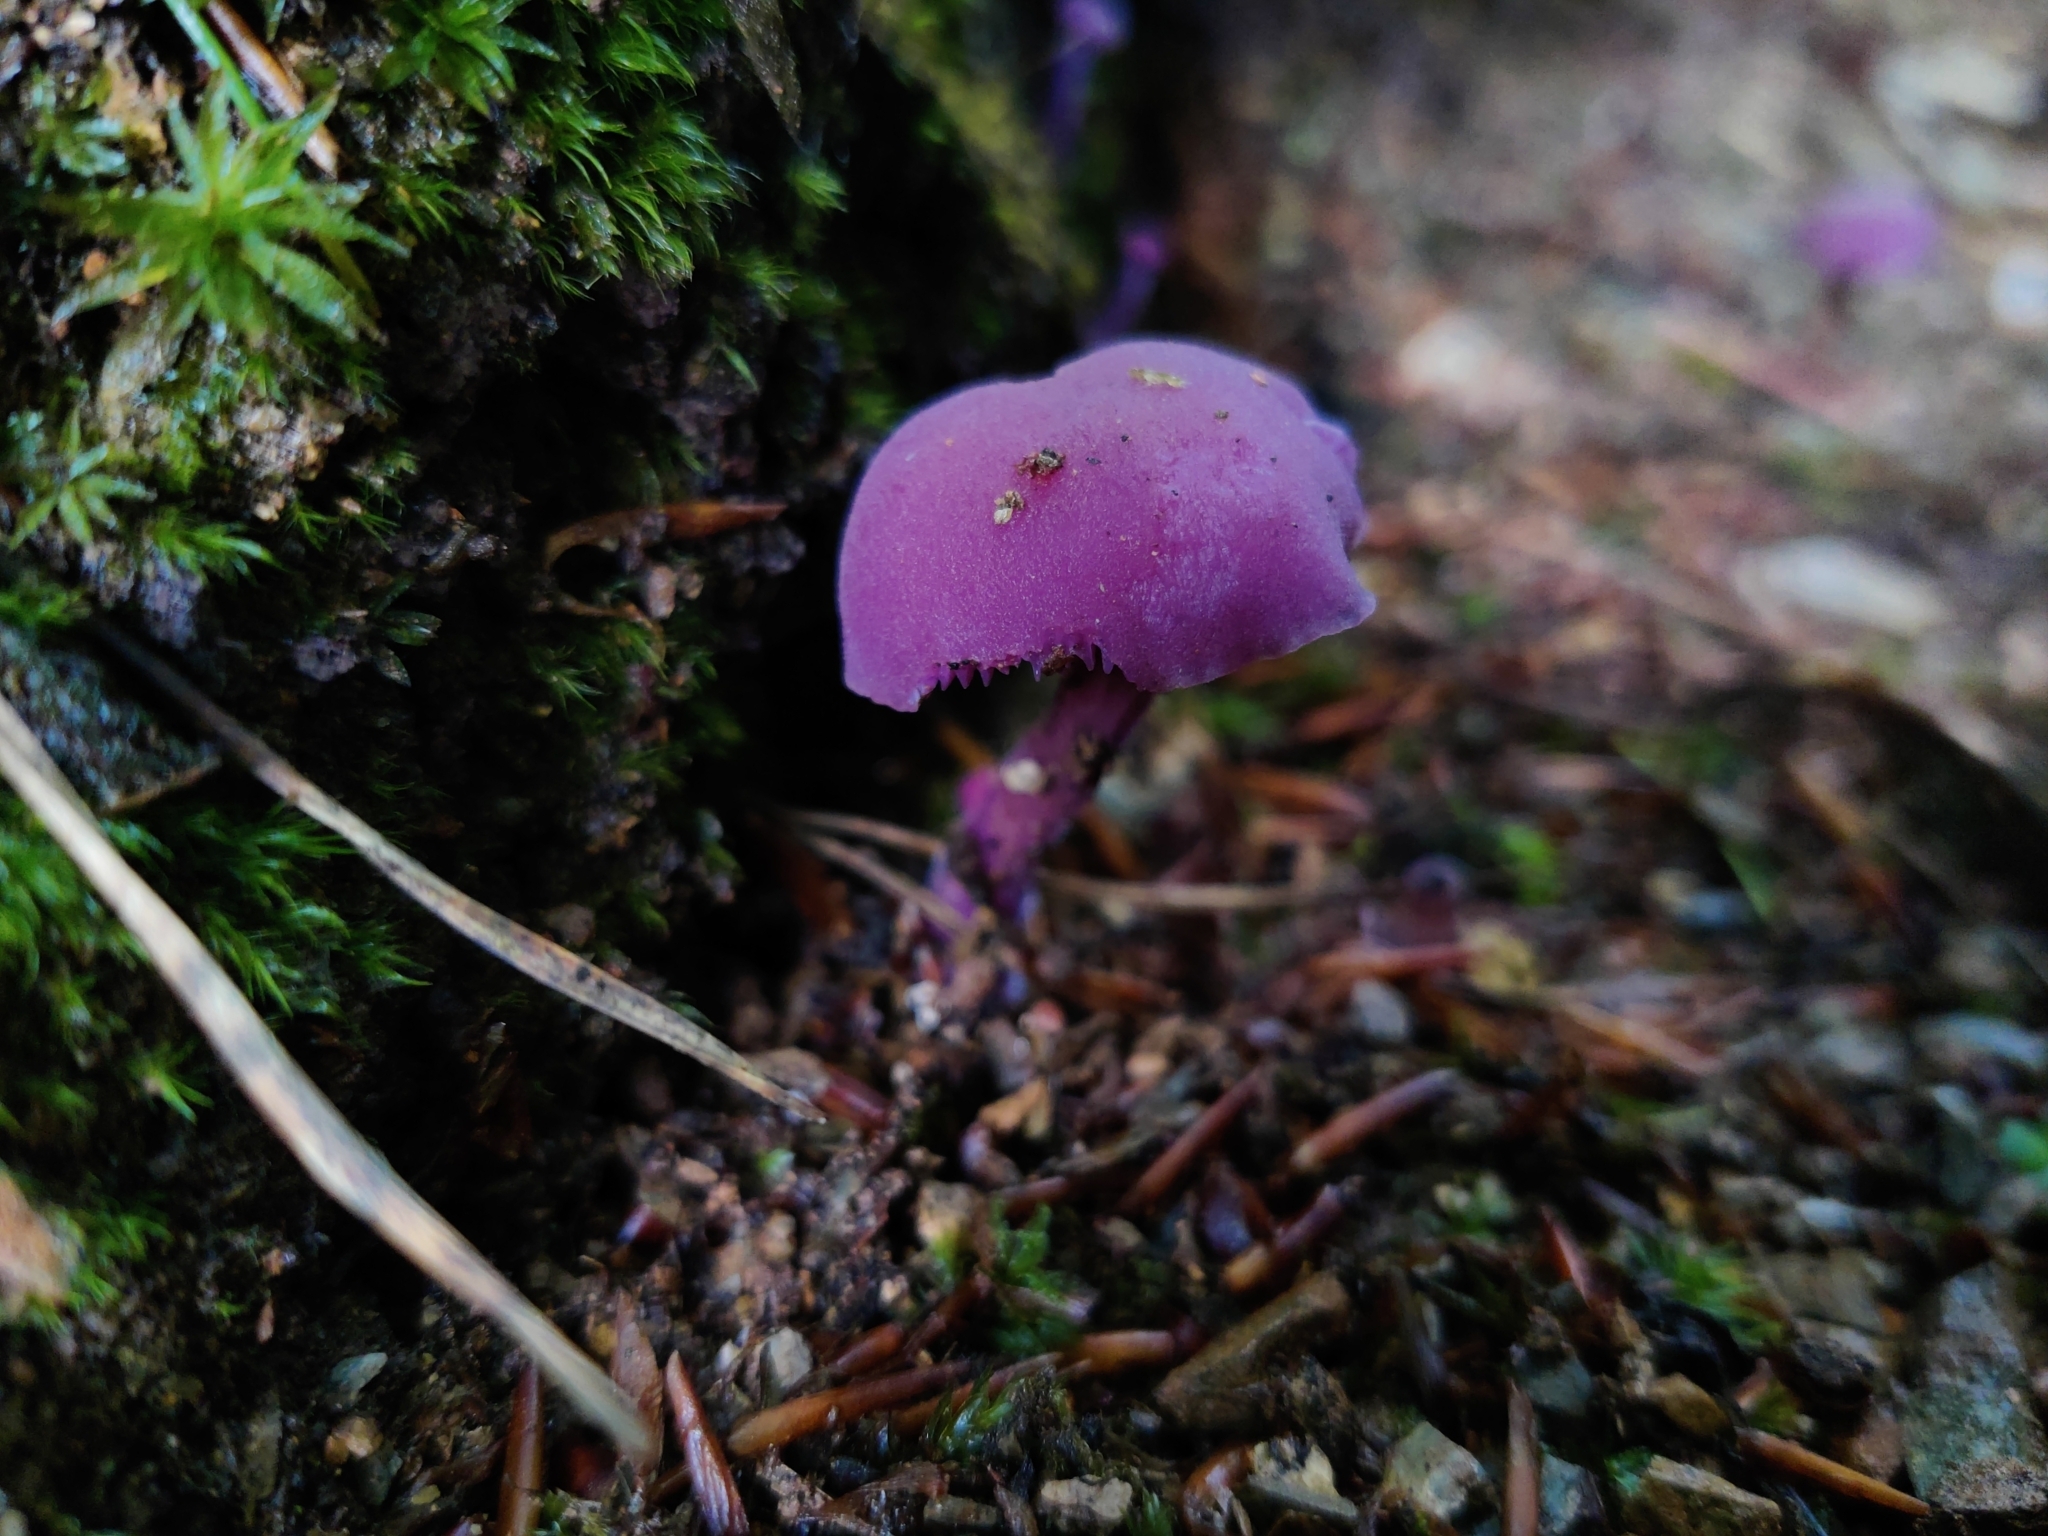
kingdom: Fungi
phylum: Basidiomycota
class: Agaricomycetes
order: Agaricales
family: Hydnangiaceae
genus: Laccaria
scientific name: Laccaria amethystina
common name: Amethyst deceiver
